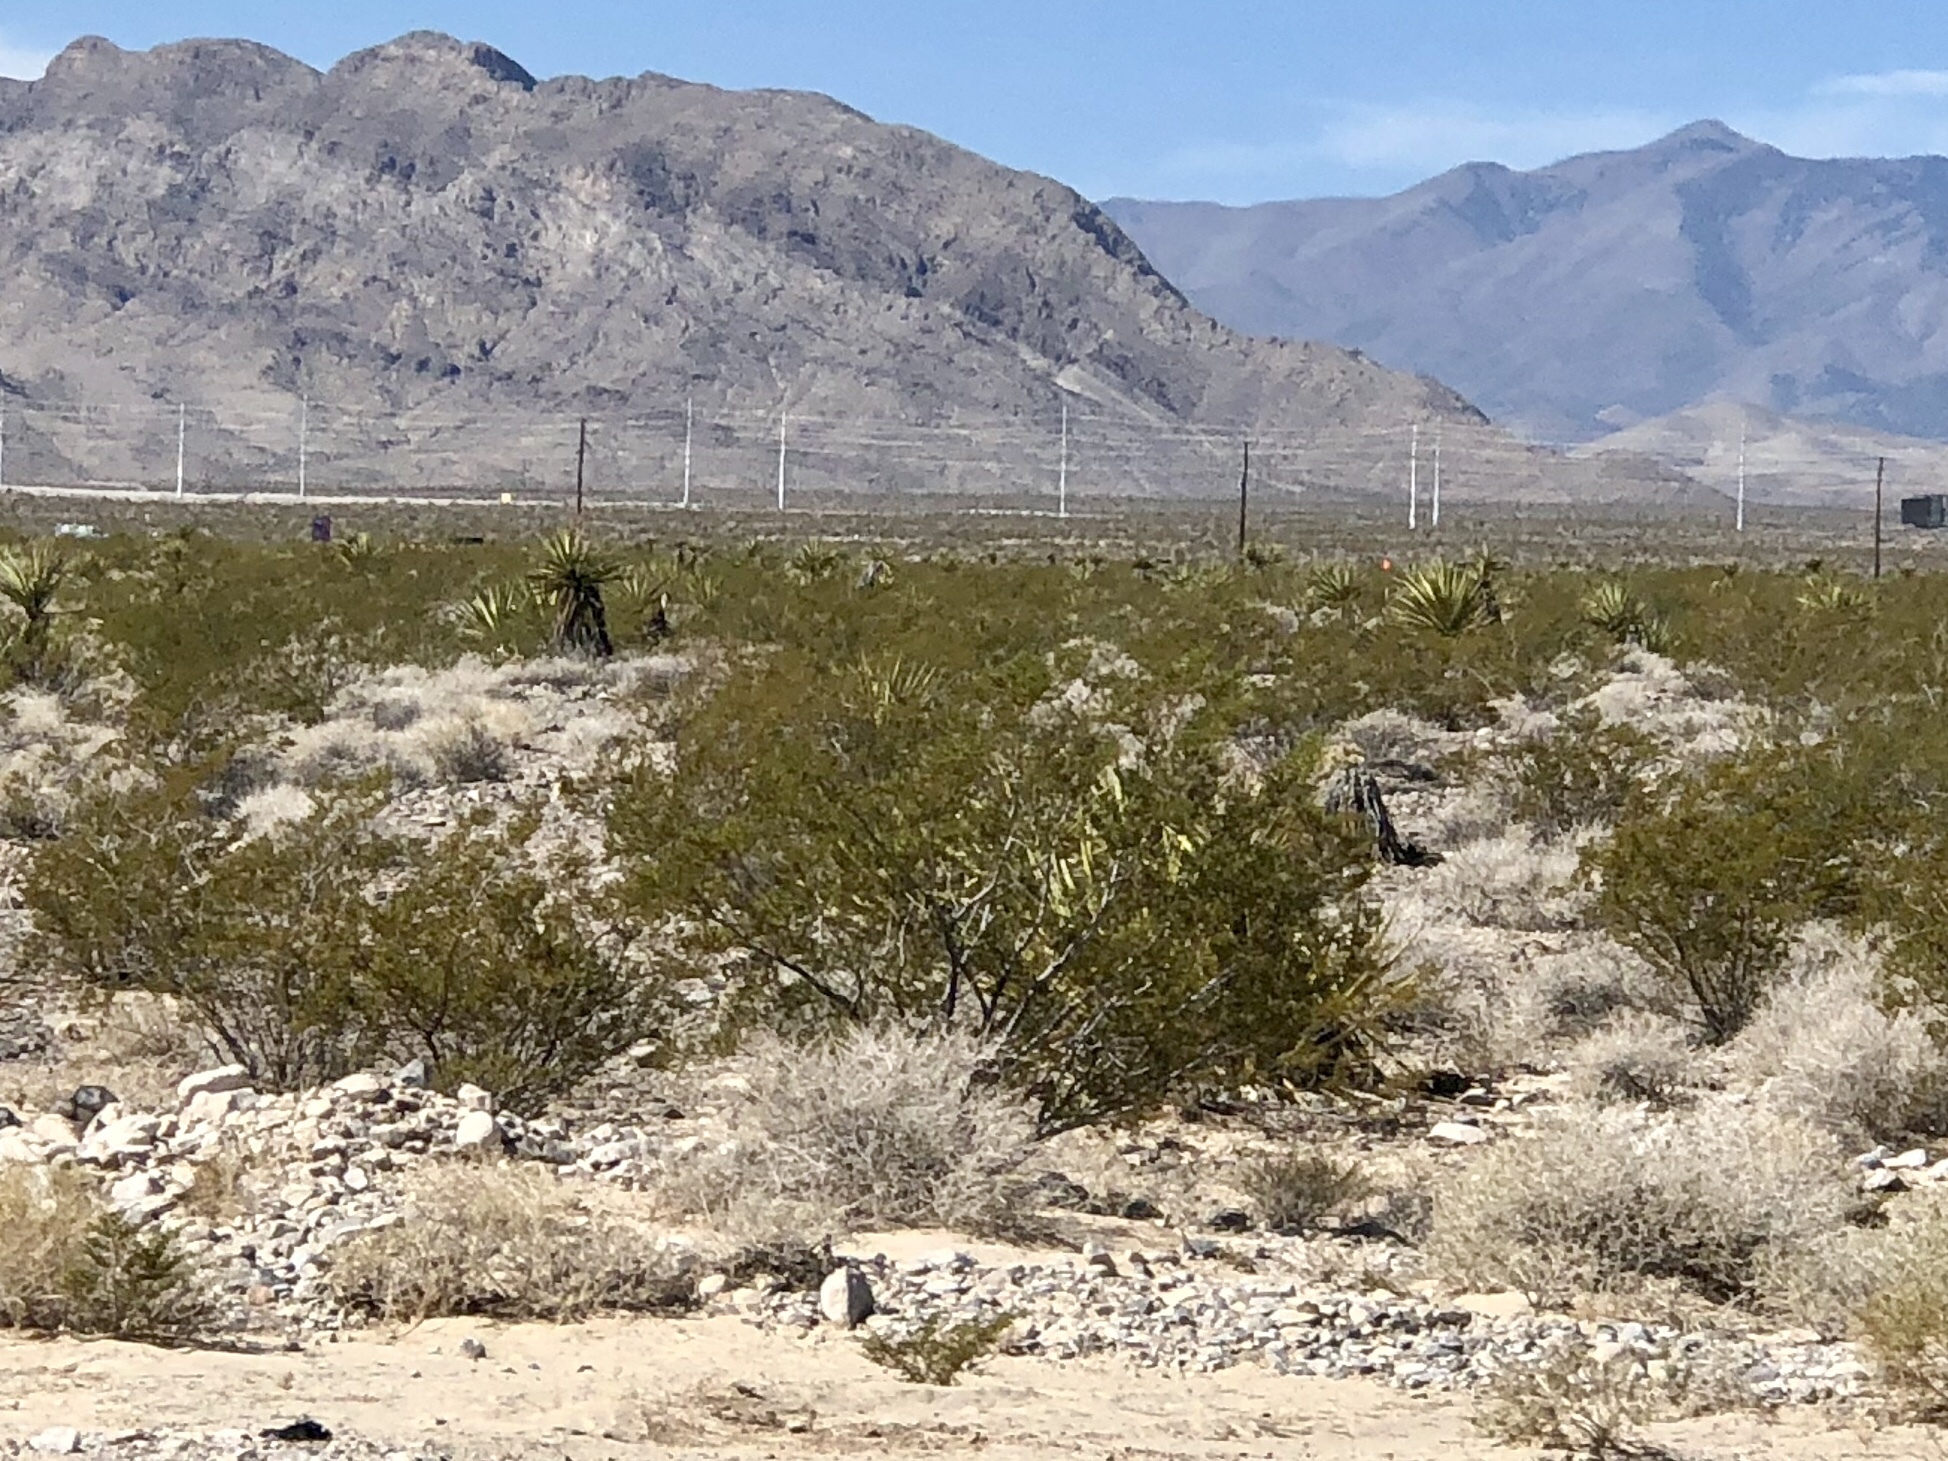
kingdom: Plantae
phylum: Tracheophyta
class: Magnoliopsida
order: Zygophyllales
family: Zygophyllaceae
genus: Larrea
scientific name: Larrea tridentata
